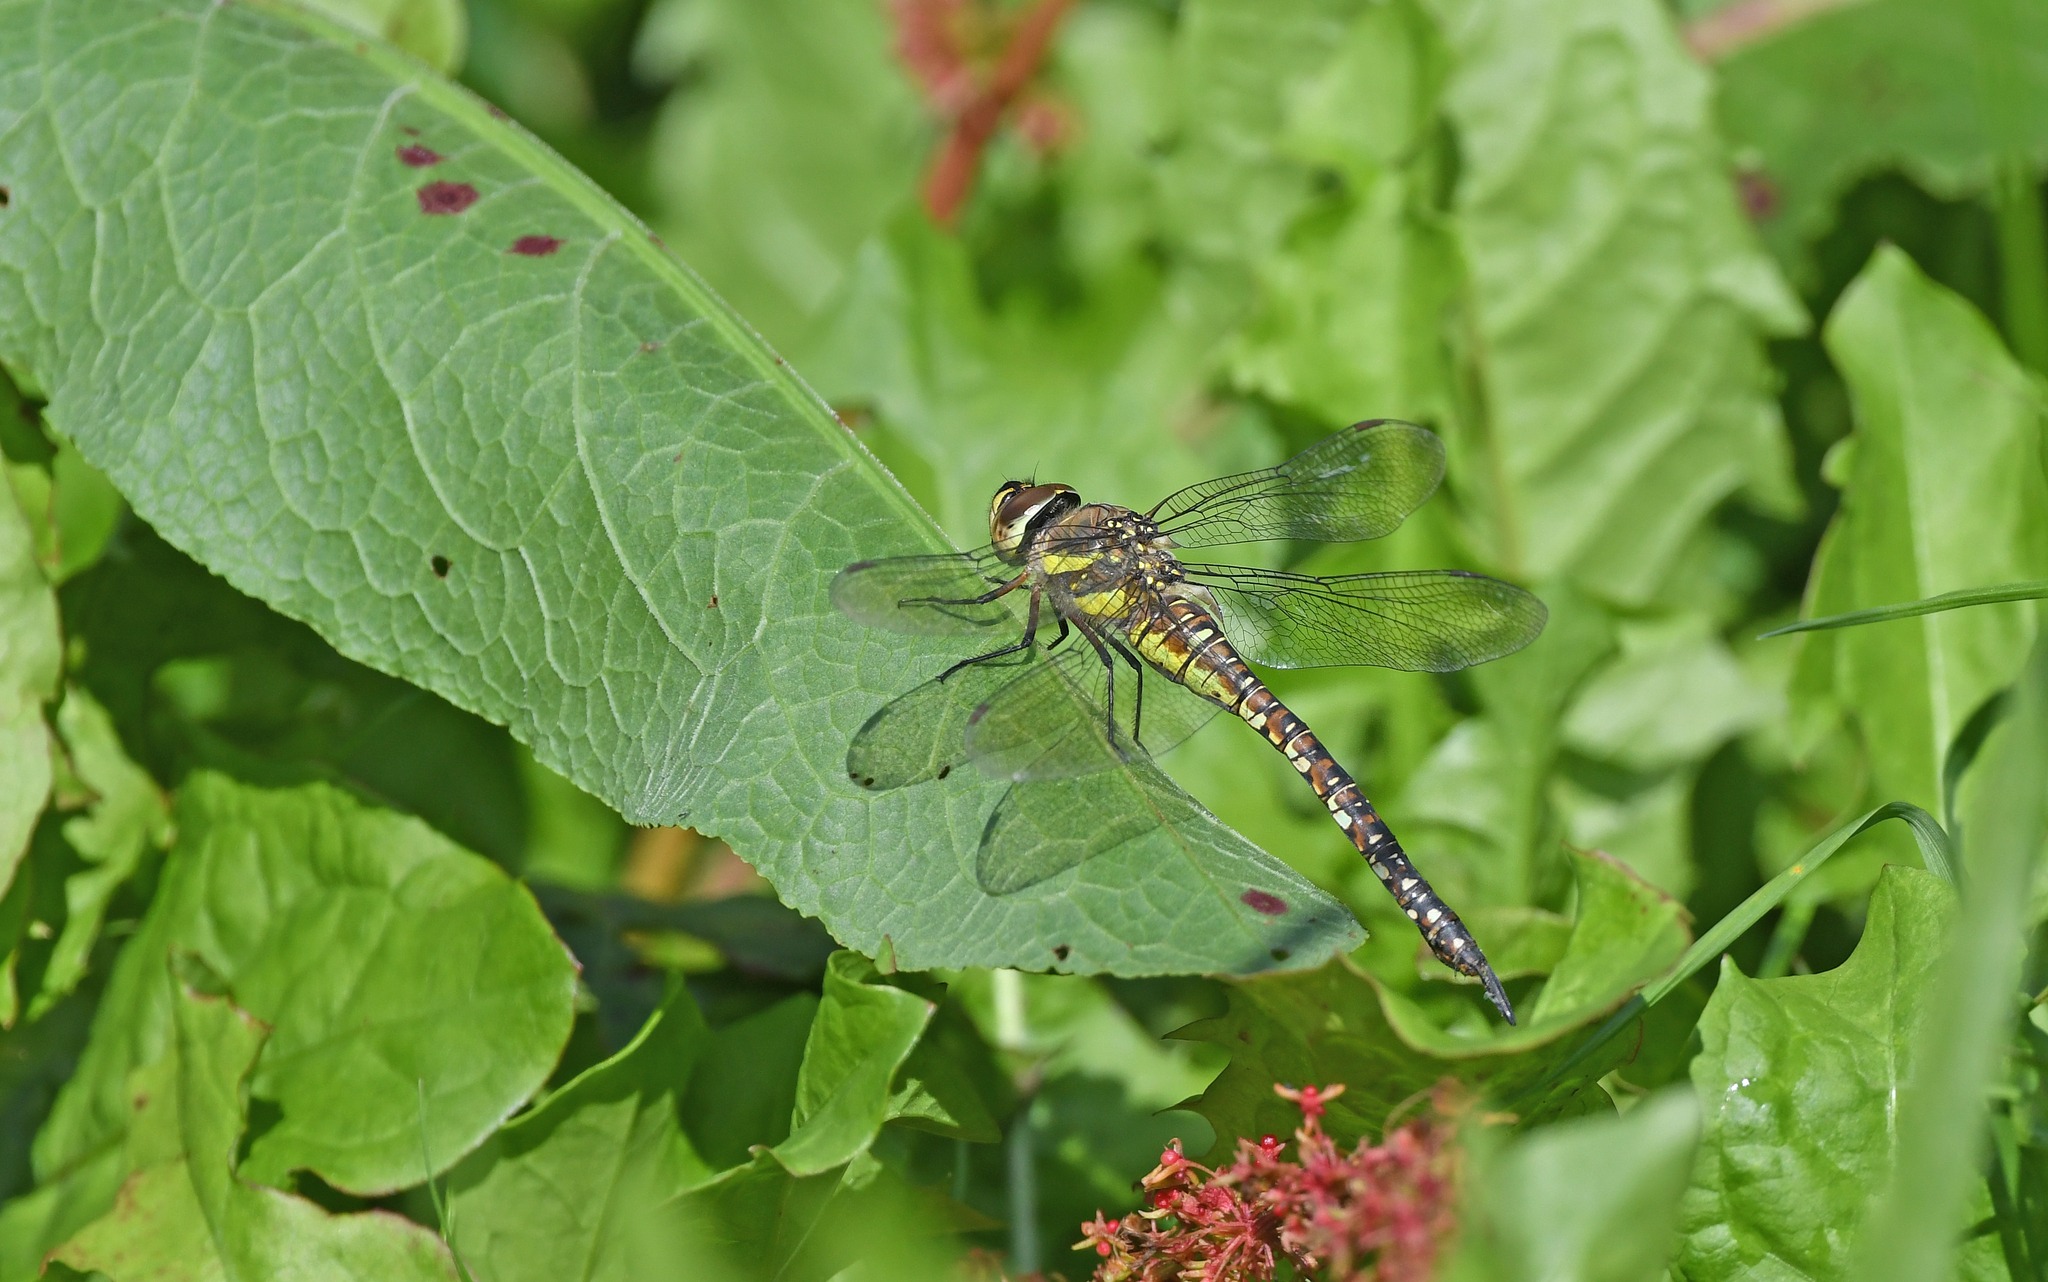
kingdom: Animalia
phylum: Arthropoda
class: Insecta
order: Odonata
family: Aeshnidae
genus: Aeshna
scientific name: Aeshna mixta
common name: Migrant hawker
